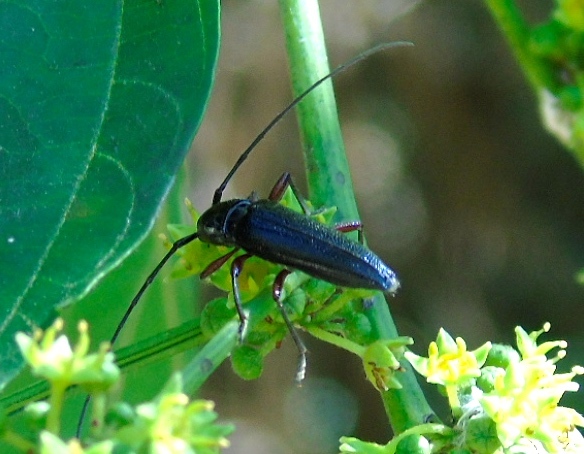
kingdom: Animalia
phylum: Arthropoda
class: Insecta
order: Coleoptera
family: Cerambycidae
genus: Stenosphenus
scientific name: Stenosphenus
